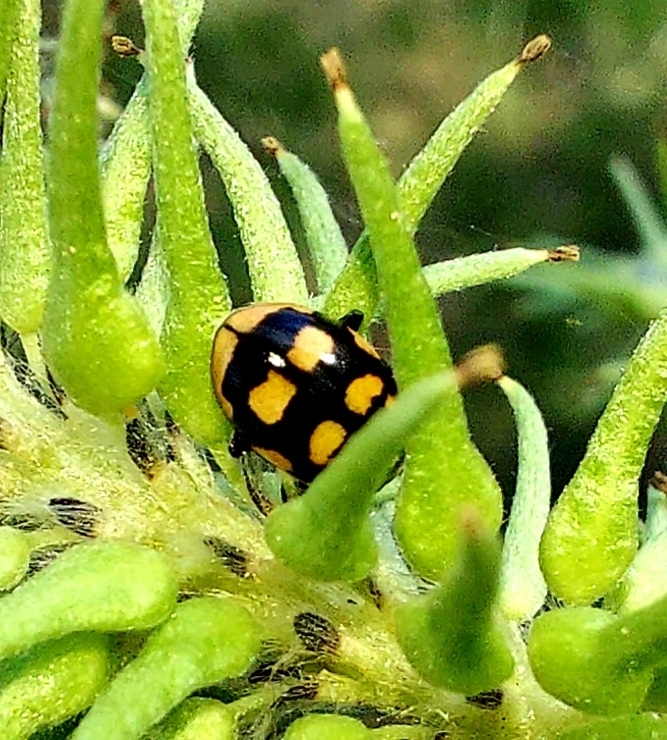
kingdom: Animalia
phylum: Arthropoda
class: Insecta
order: Coleoptera
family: Coccinellidae
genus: Coccinula
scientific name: Coccinula quatuordecimpustulata
